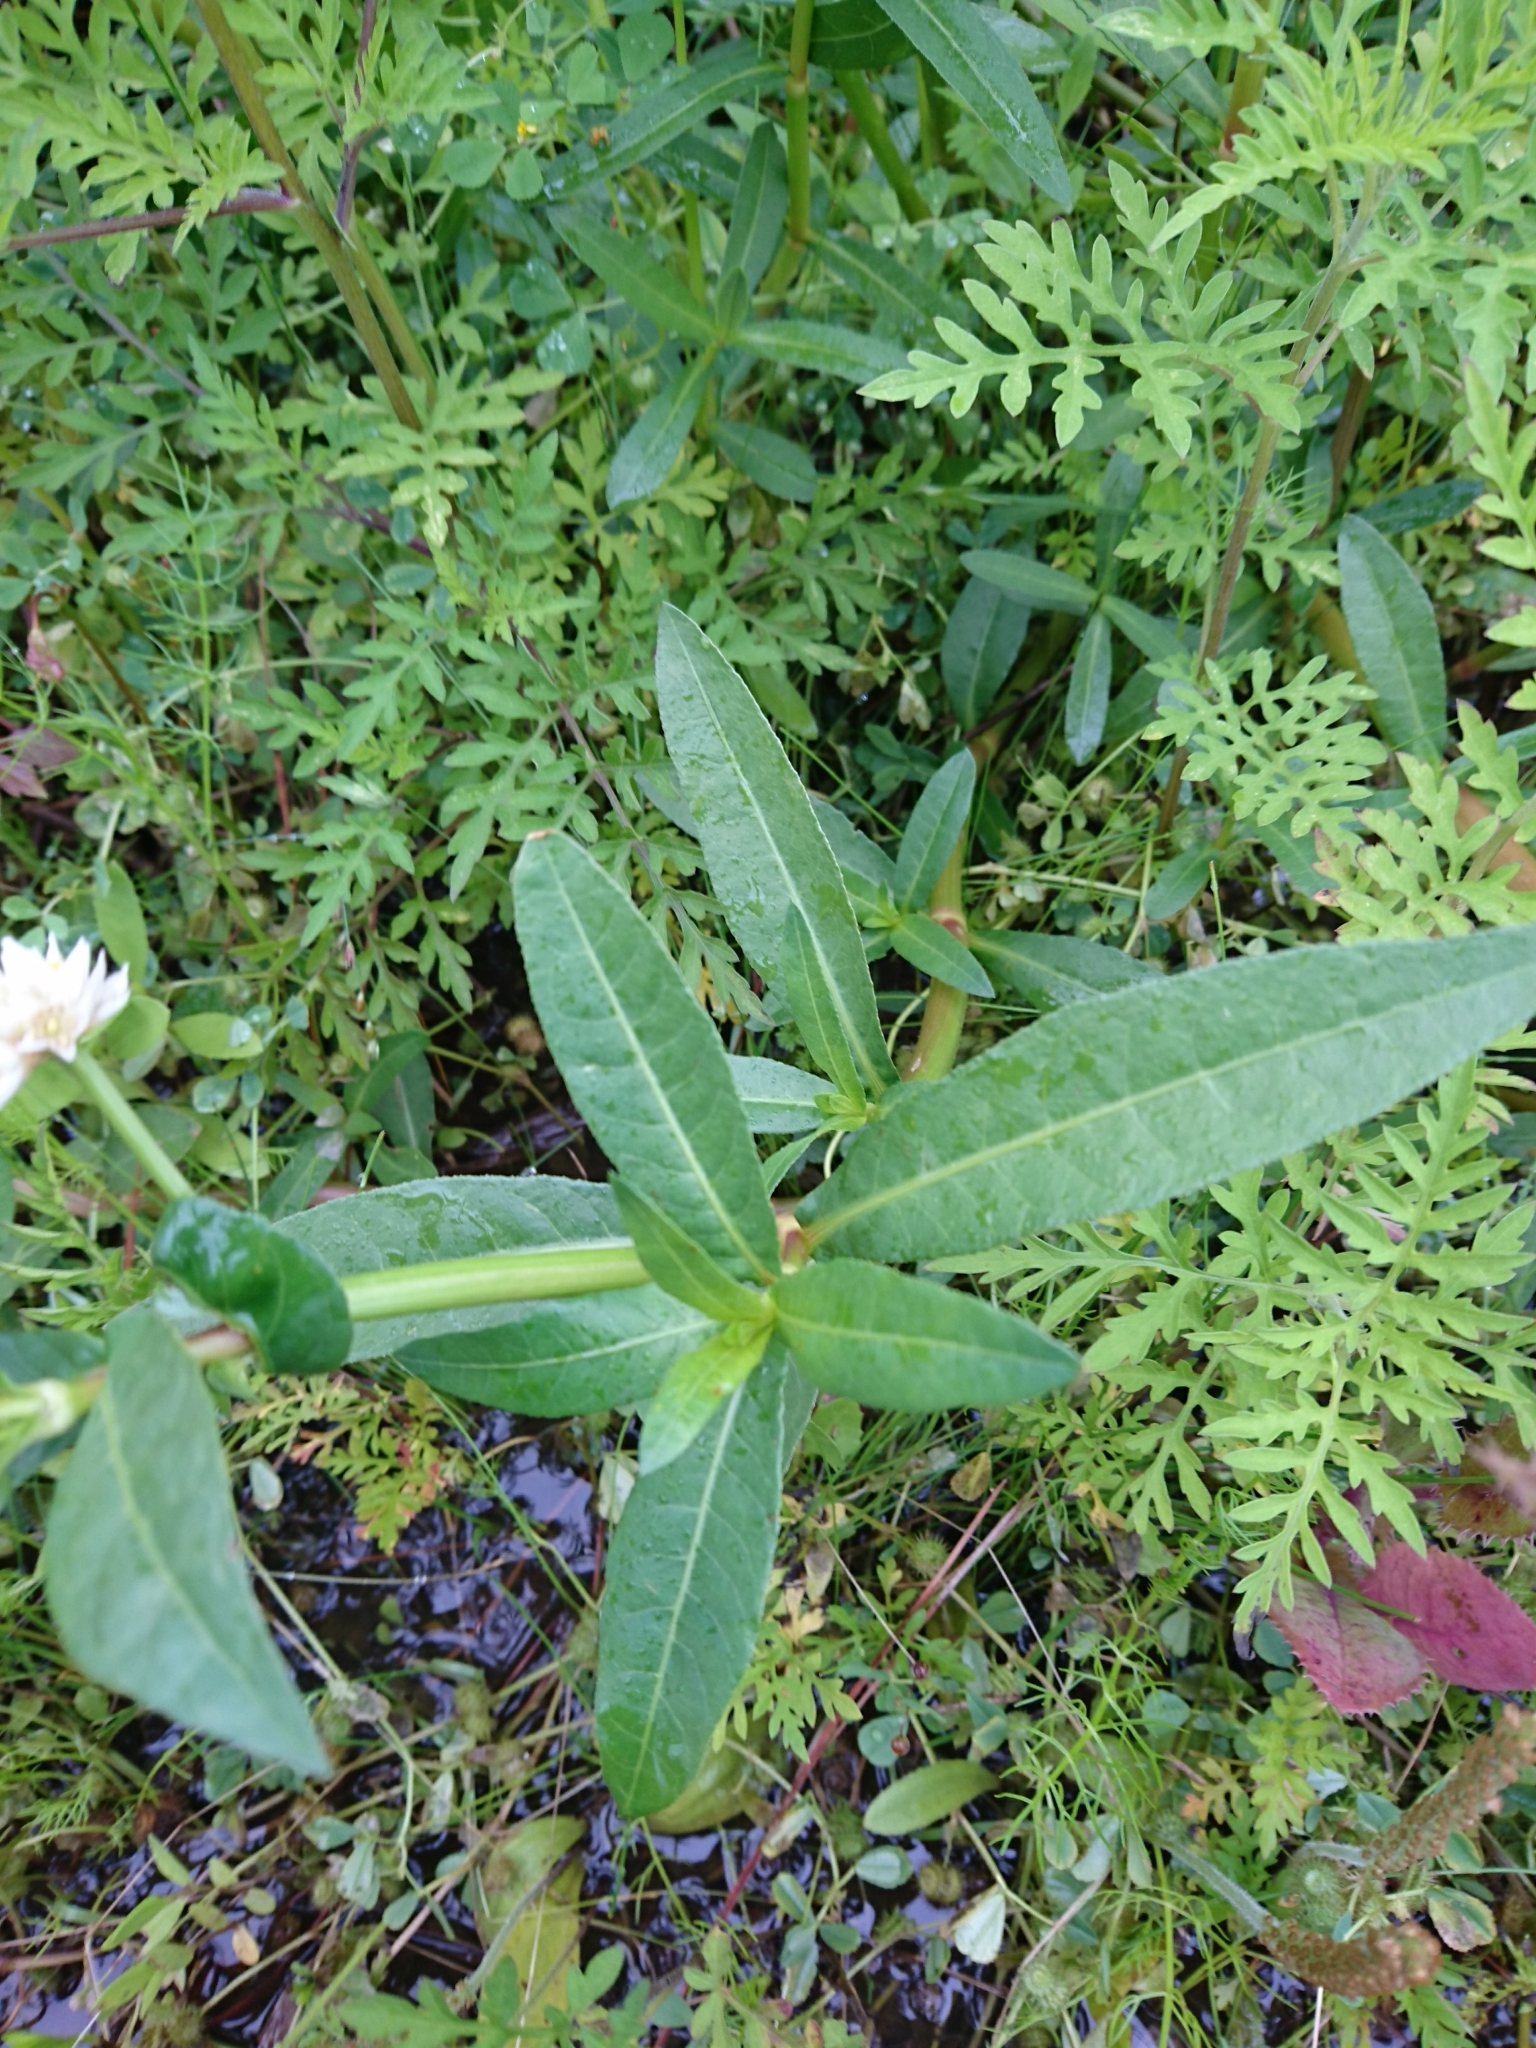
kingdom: Plantae
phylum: Tracheophyta
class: Magnoliopsida
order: Caryophyllales
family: Amaranthaceae
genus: Alternanthera
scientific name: Alternanthera philoxeroides
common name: Alligatorweed
